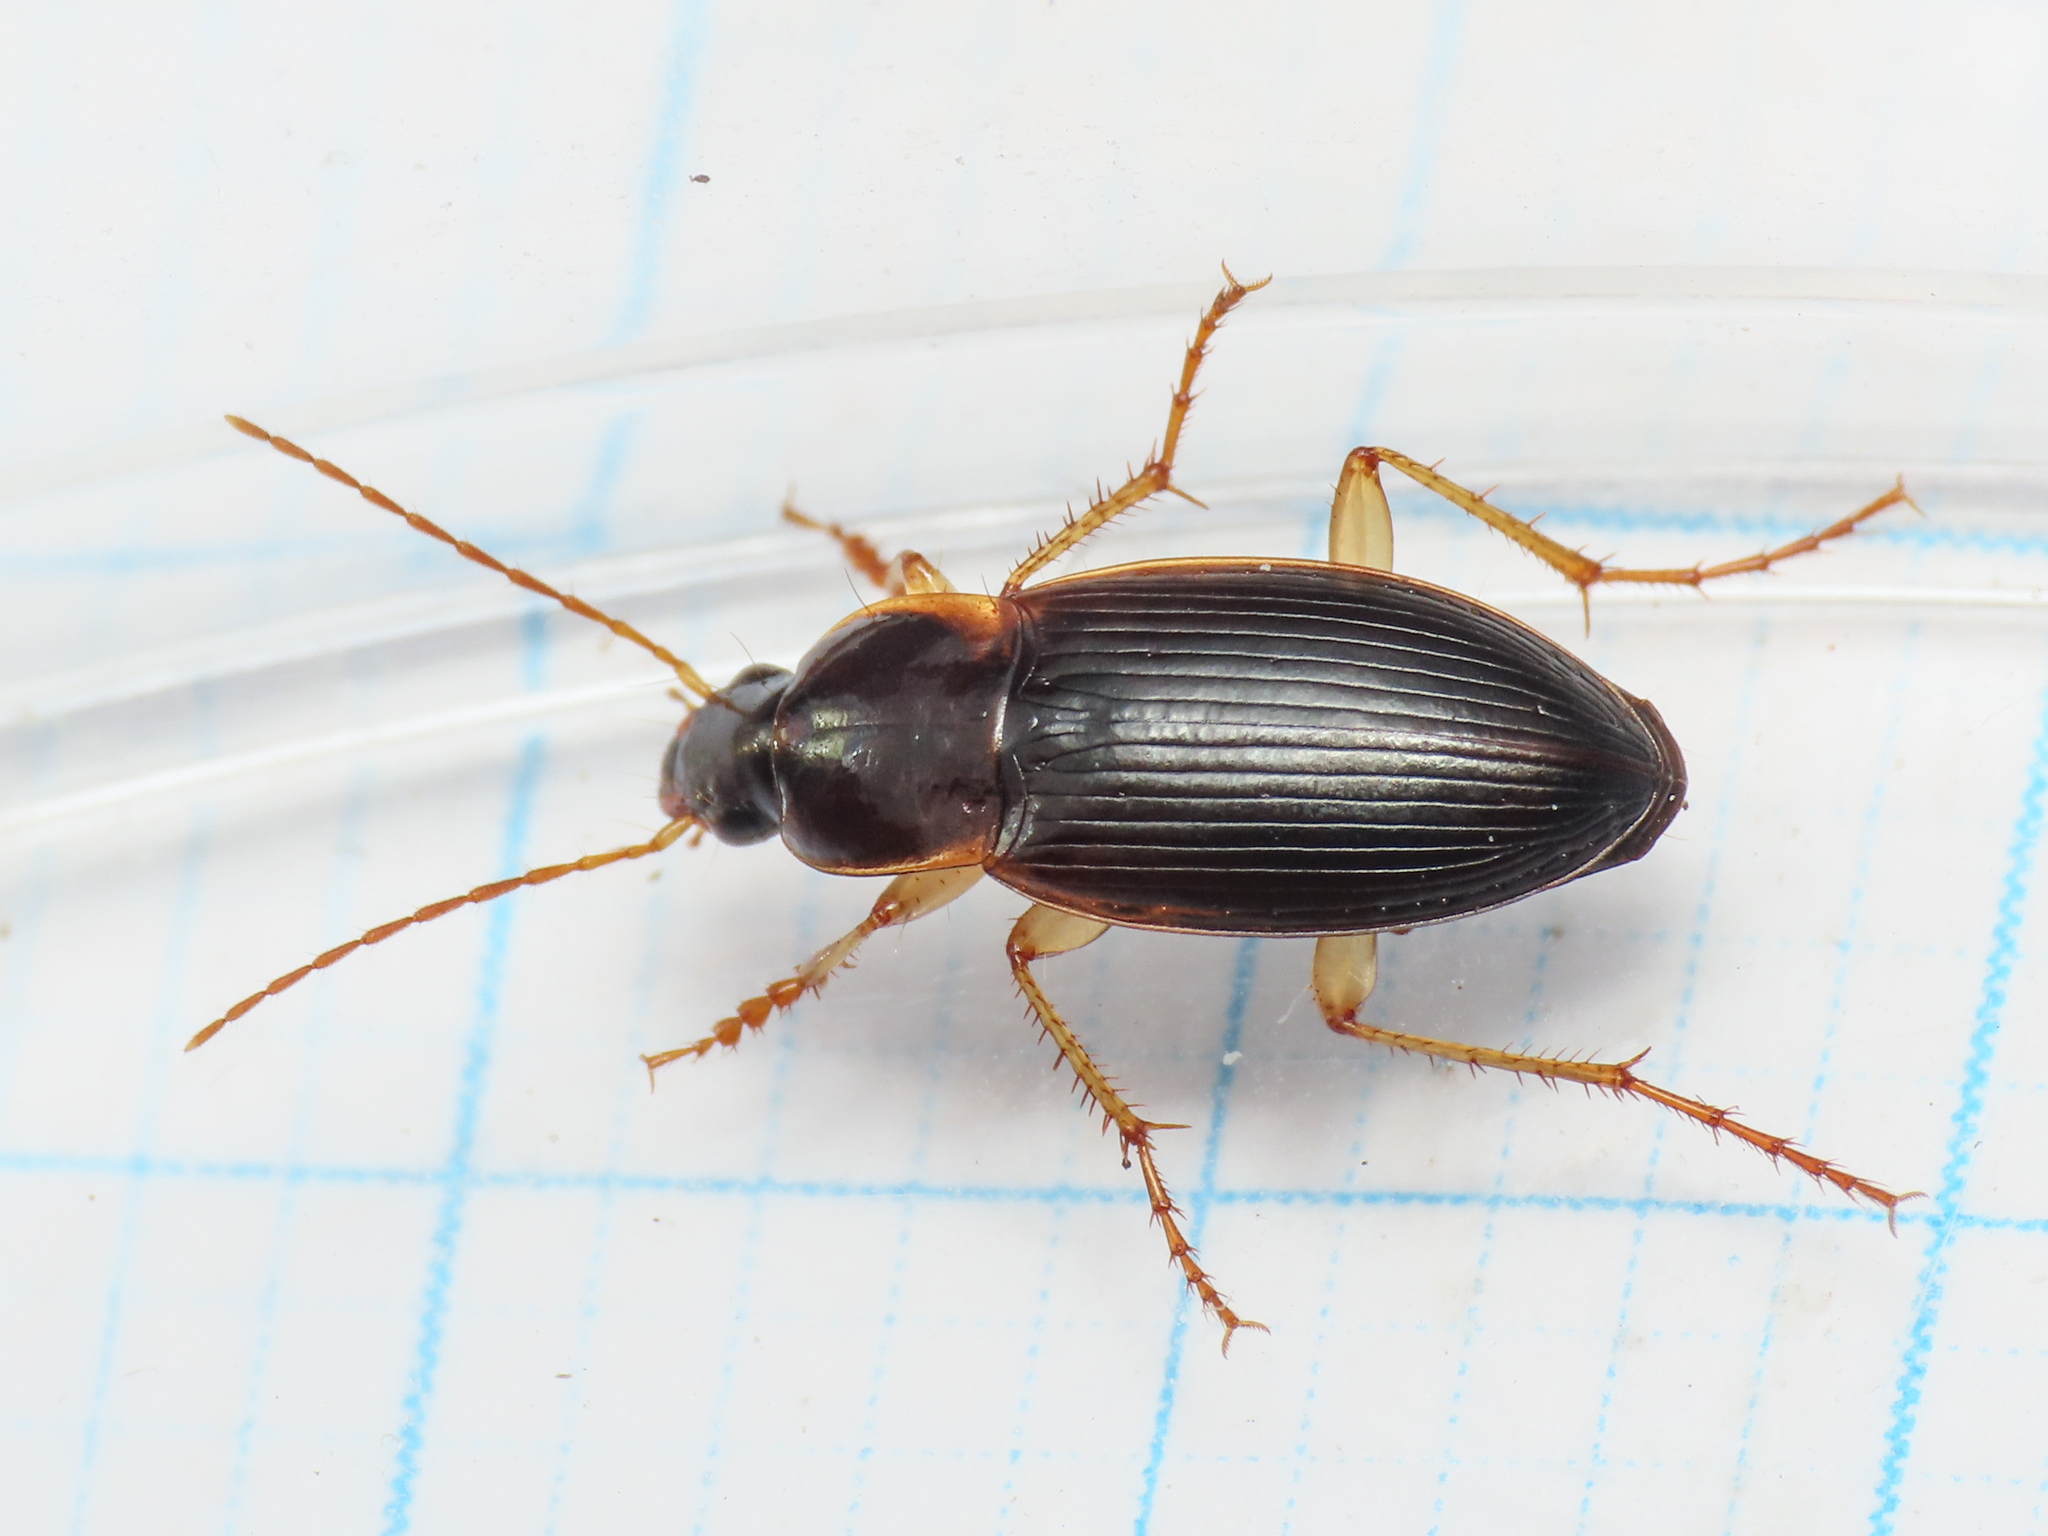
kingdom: Animalia
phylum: Arthropoda
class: Insecta
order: Coleoptera
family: Carabidae
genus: Calathus
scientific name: Calathus cinctus
